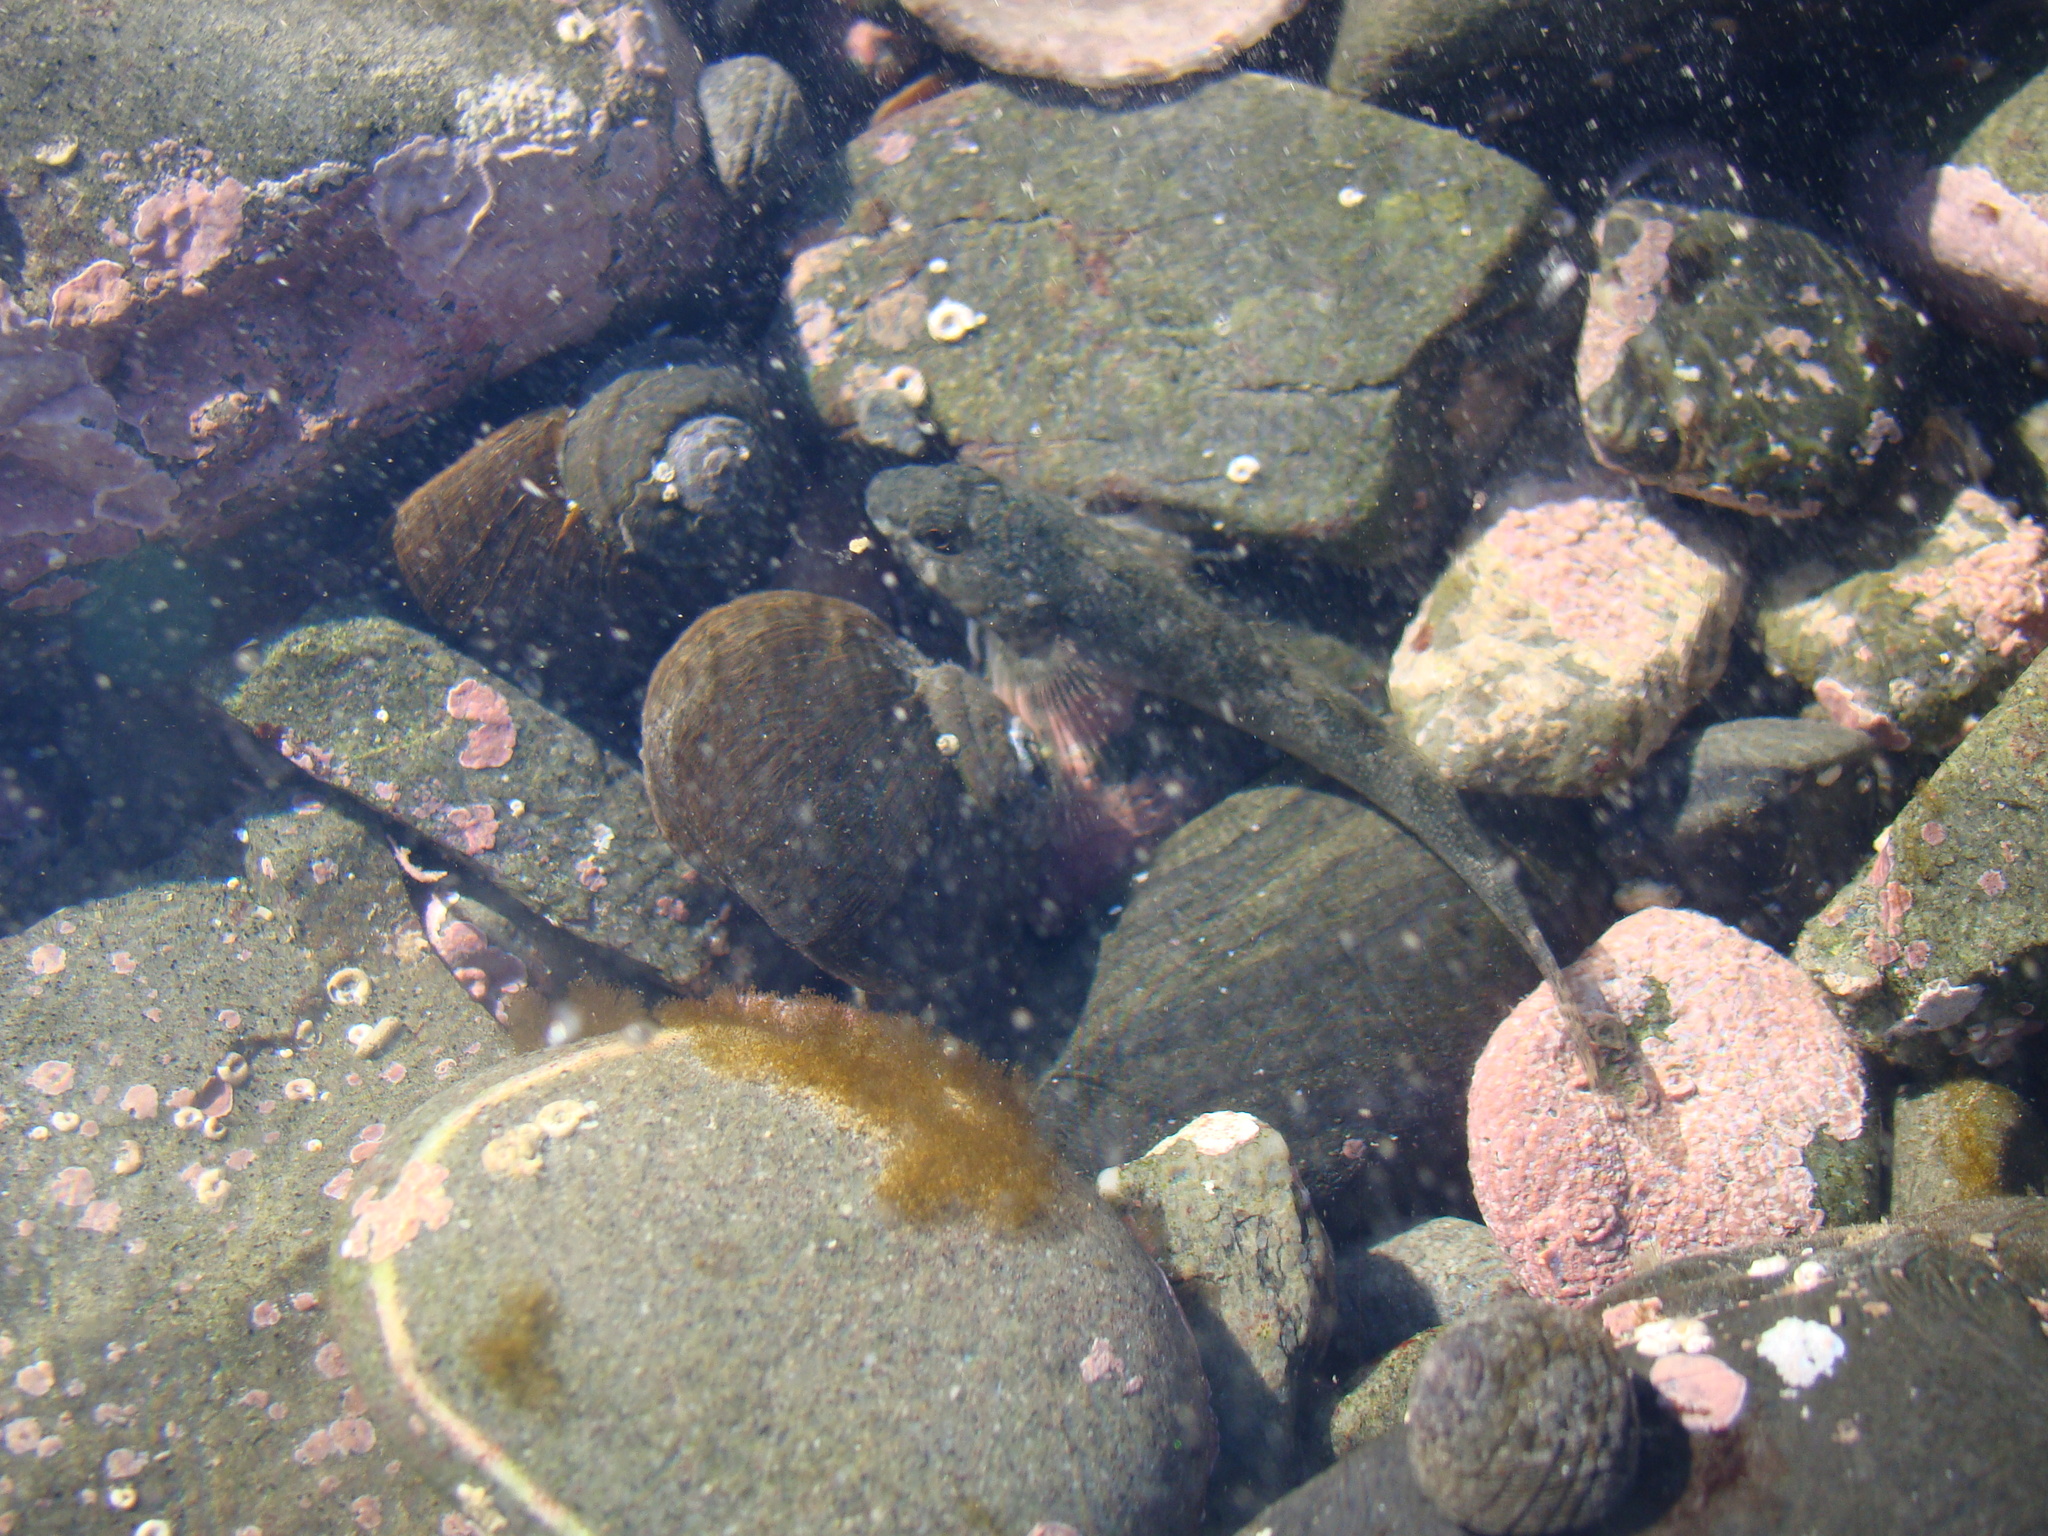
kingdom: Animalia
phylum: Chordata
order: Perciformes
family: Tripterygiidae
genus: Bellapiscis
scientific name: Bellapiscis medius
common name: Twister
